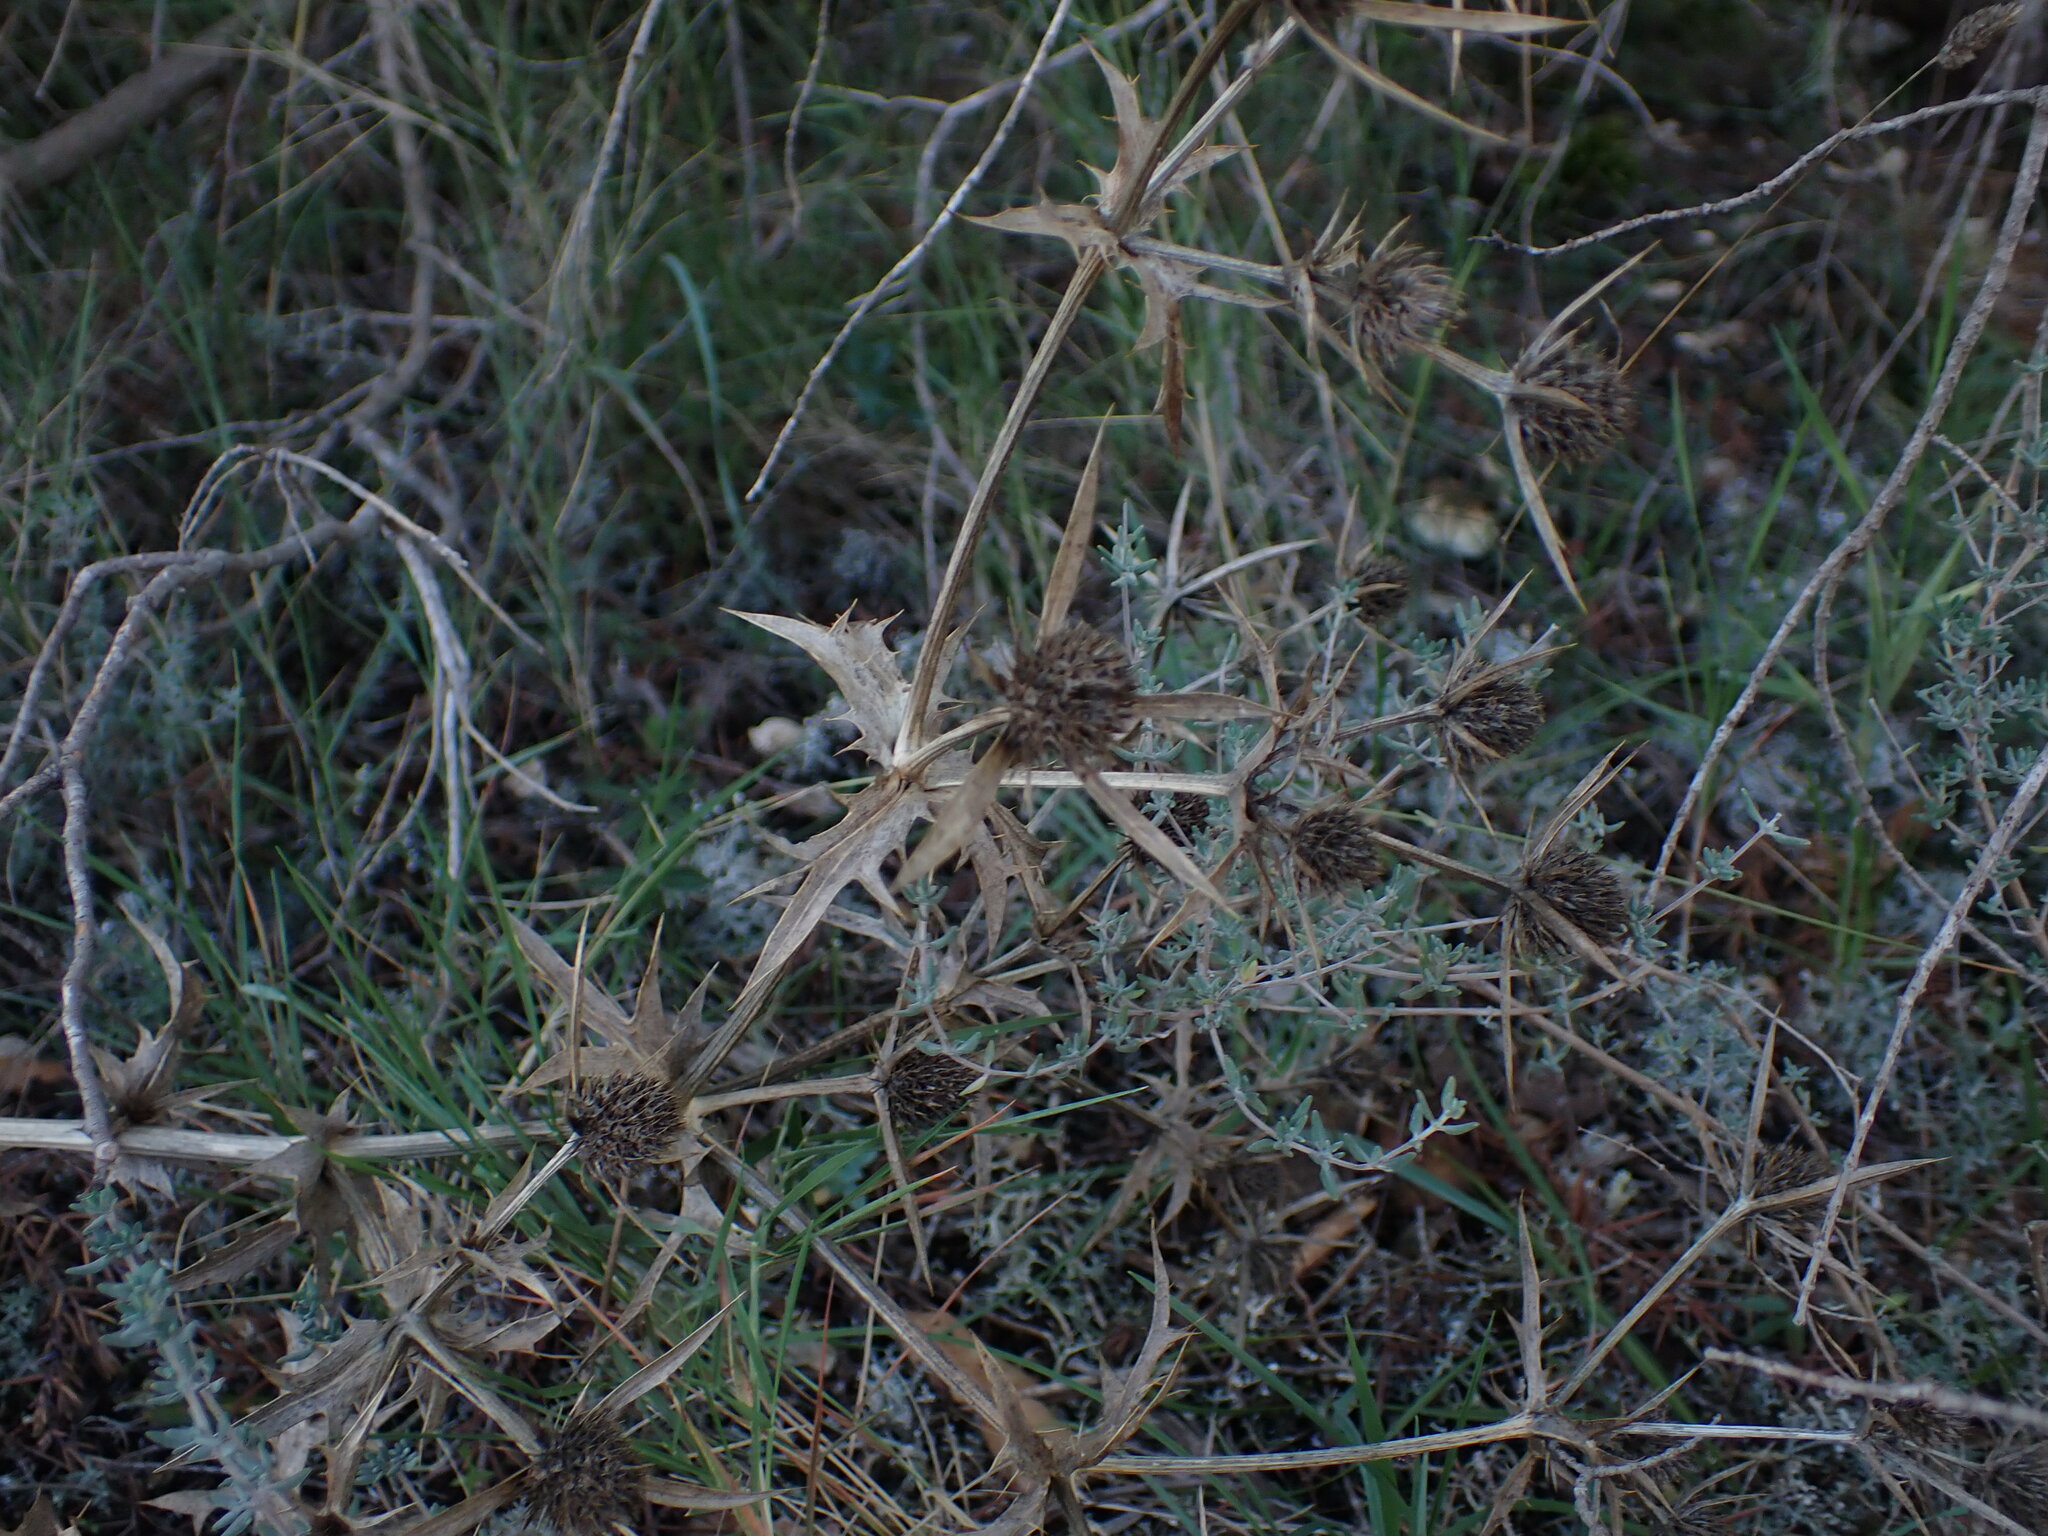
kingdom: Plantae
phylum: Tracheophyta
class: Magnoliopsida
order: Apiales
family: Apiaceae
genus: Eryngium
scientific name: Eryngium campestre
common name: Field eryngo
